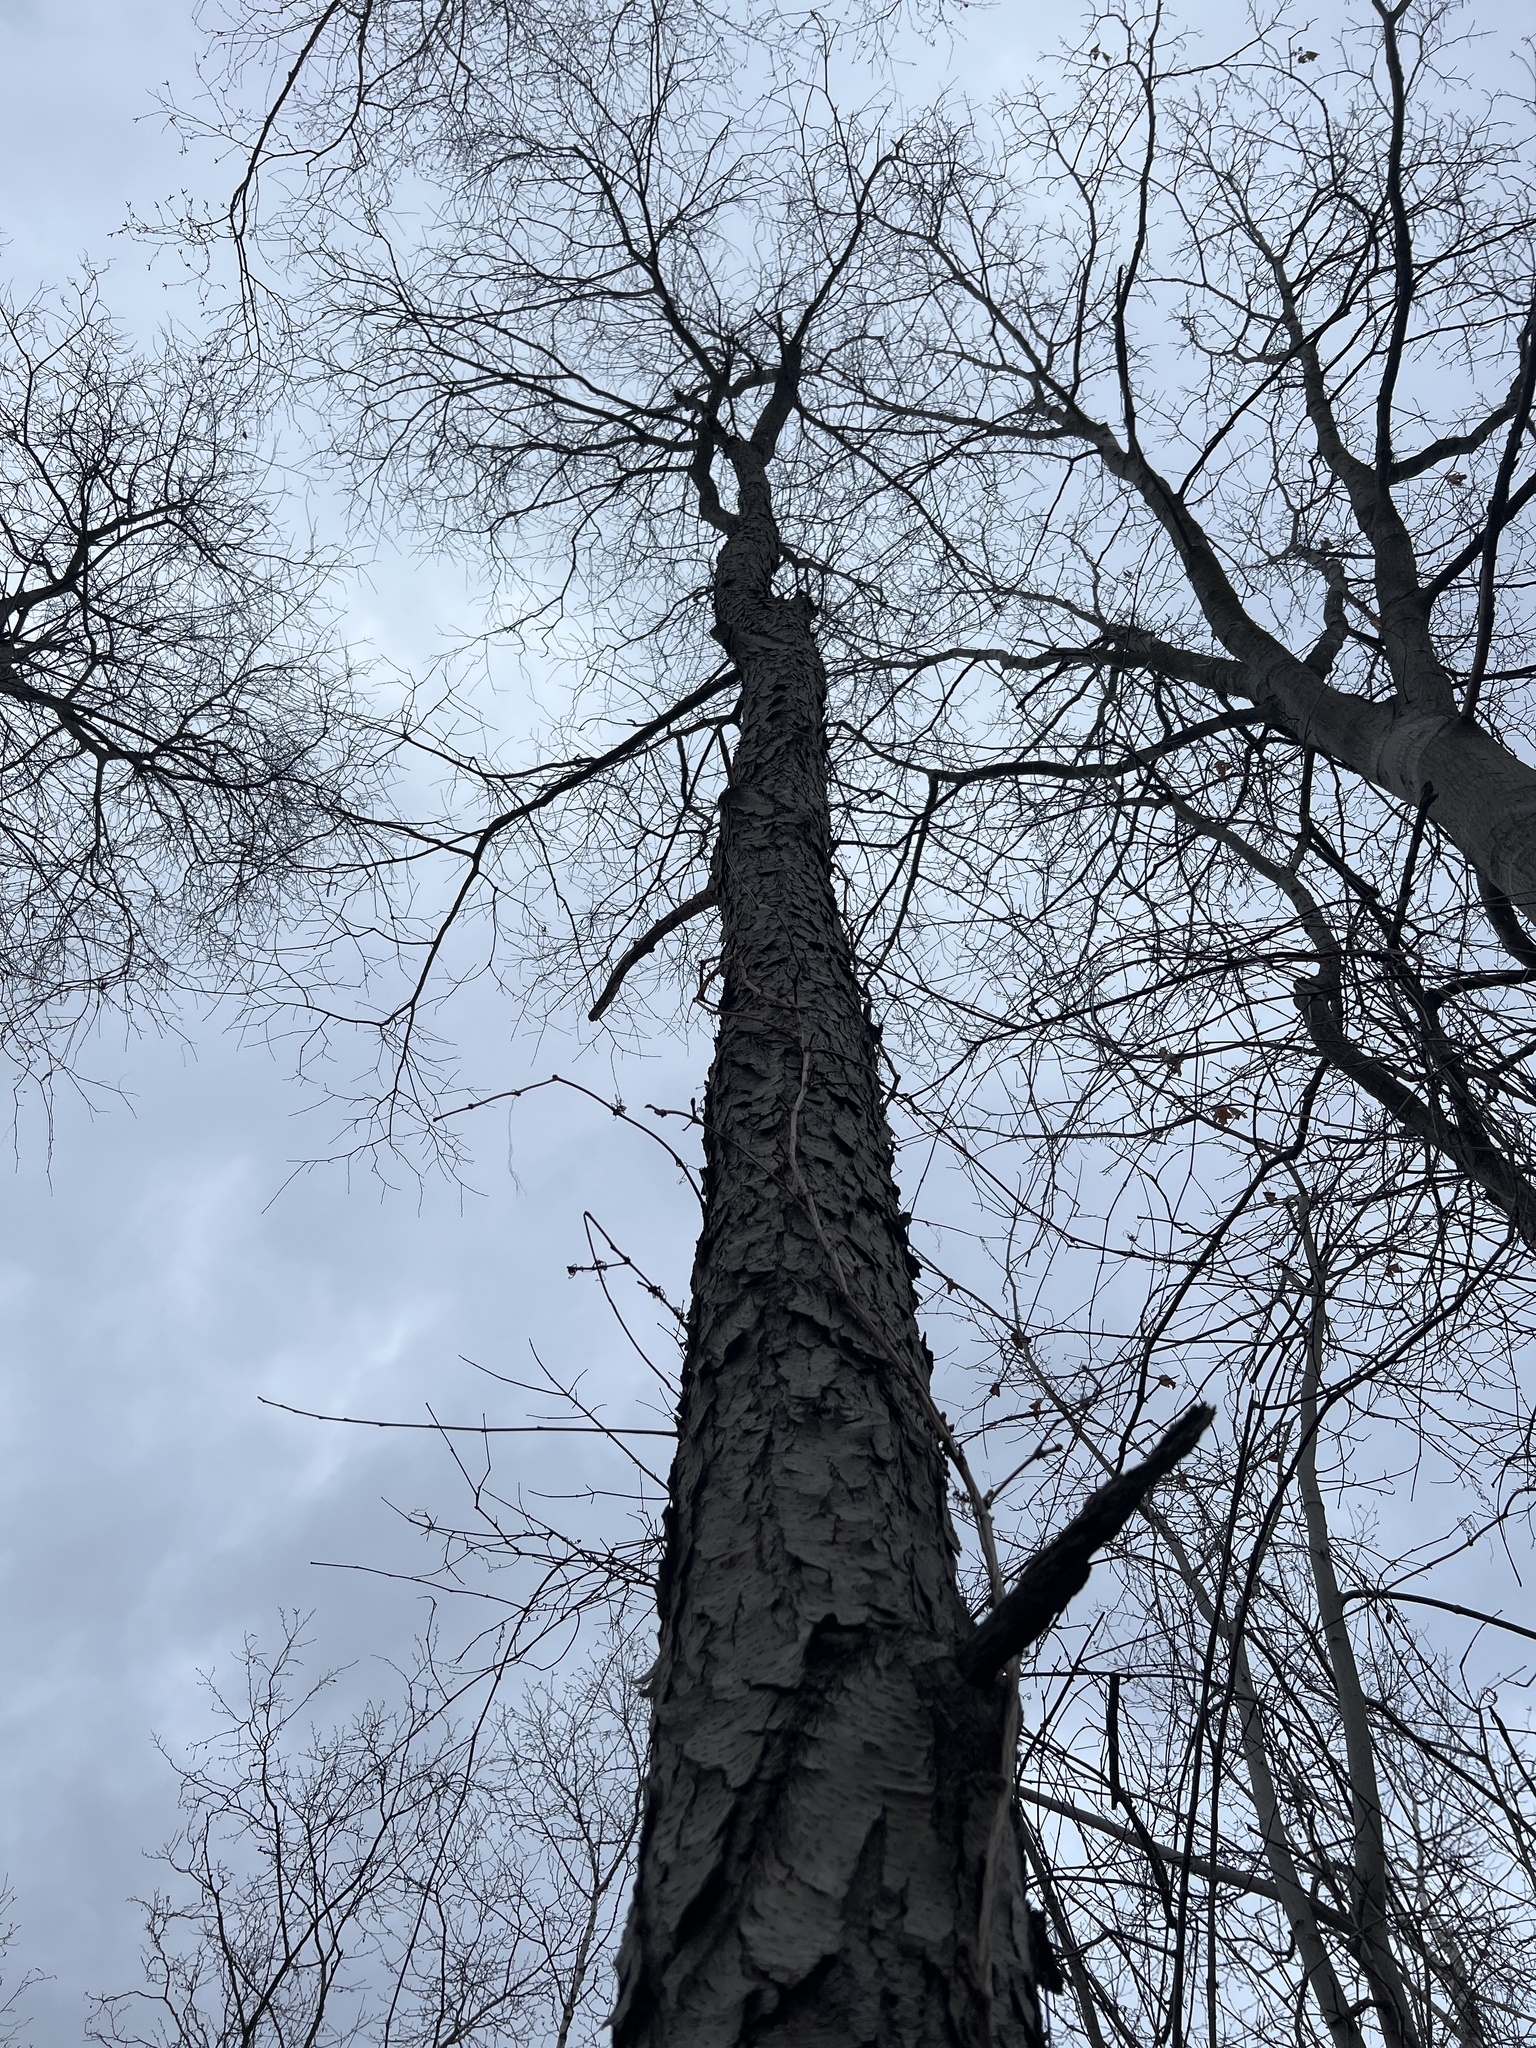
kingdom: Plantae
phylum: Tracheophyta
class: Magnoliopsida
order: Rosales
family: Rosaceae
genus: Prunus
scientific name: Prunus serotina
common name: Black cherry
